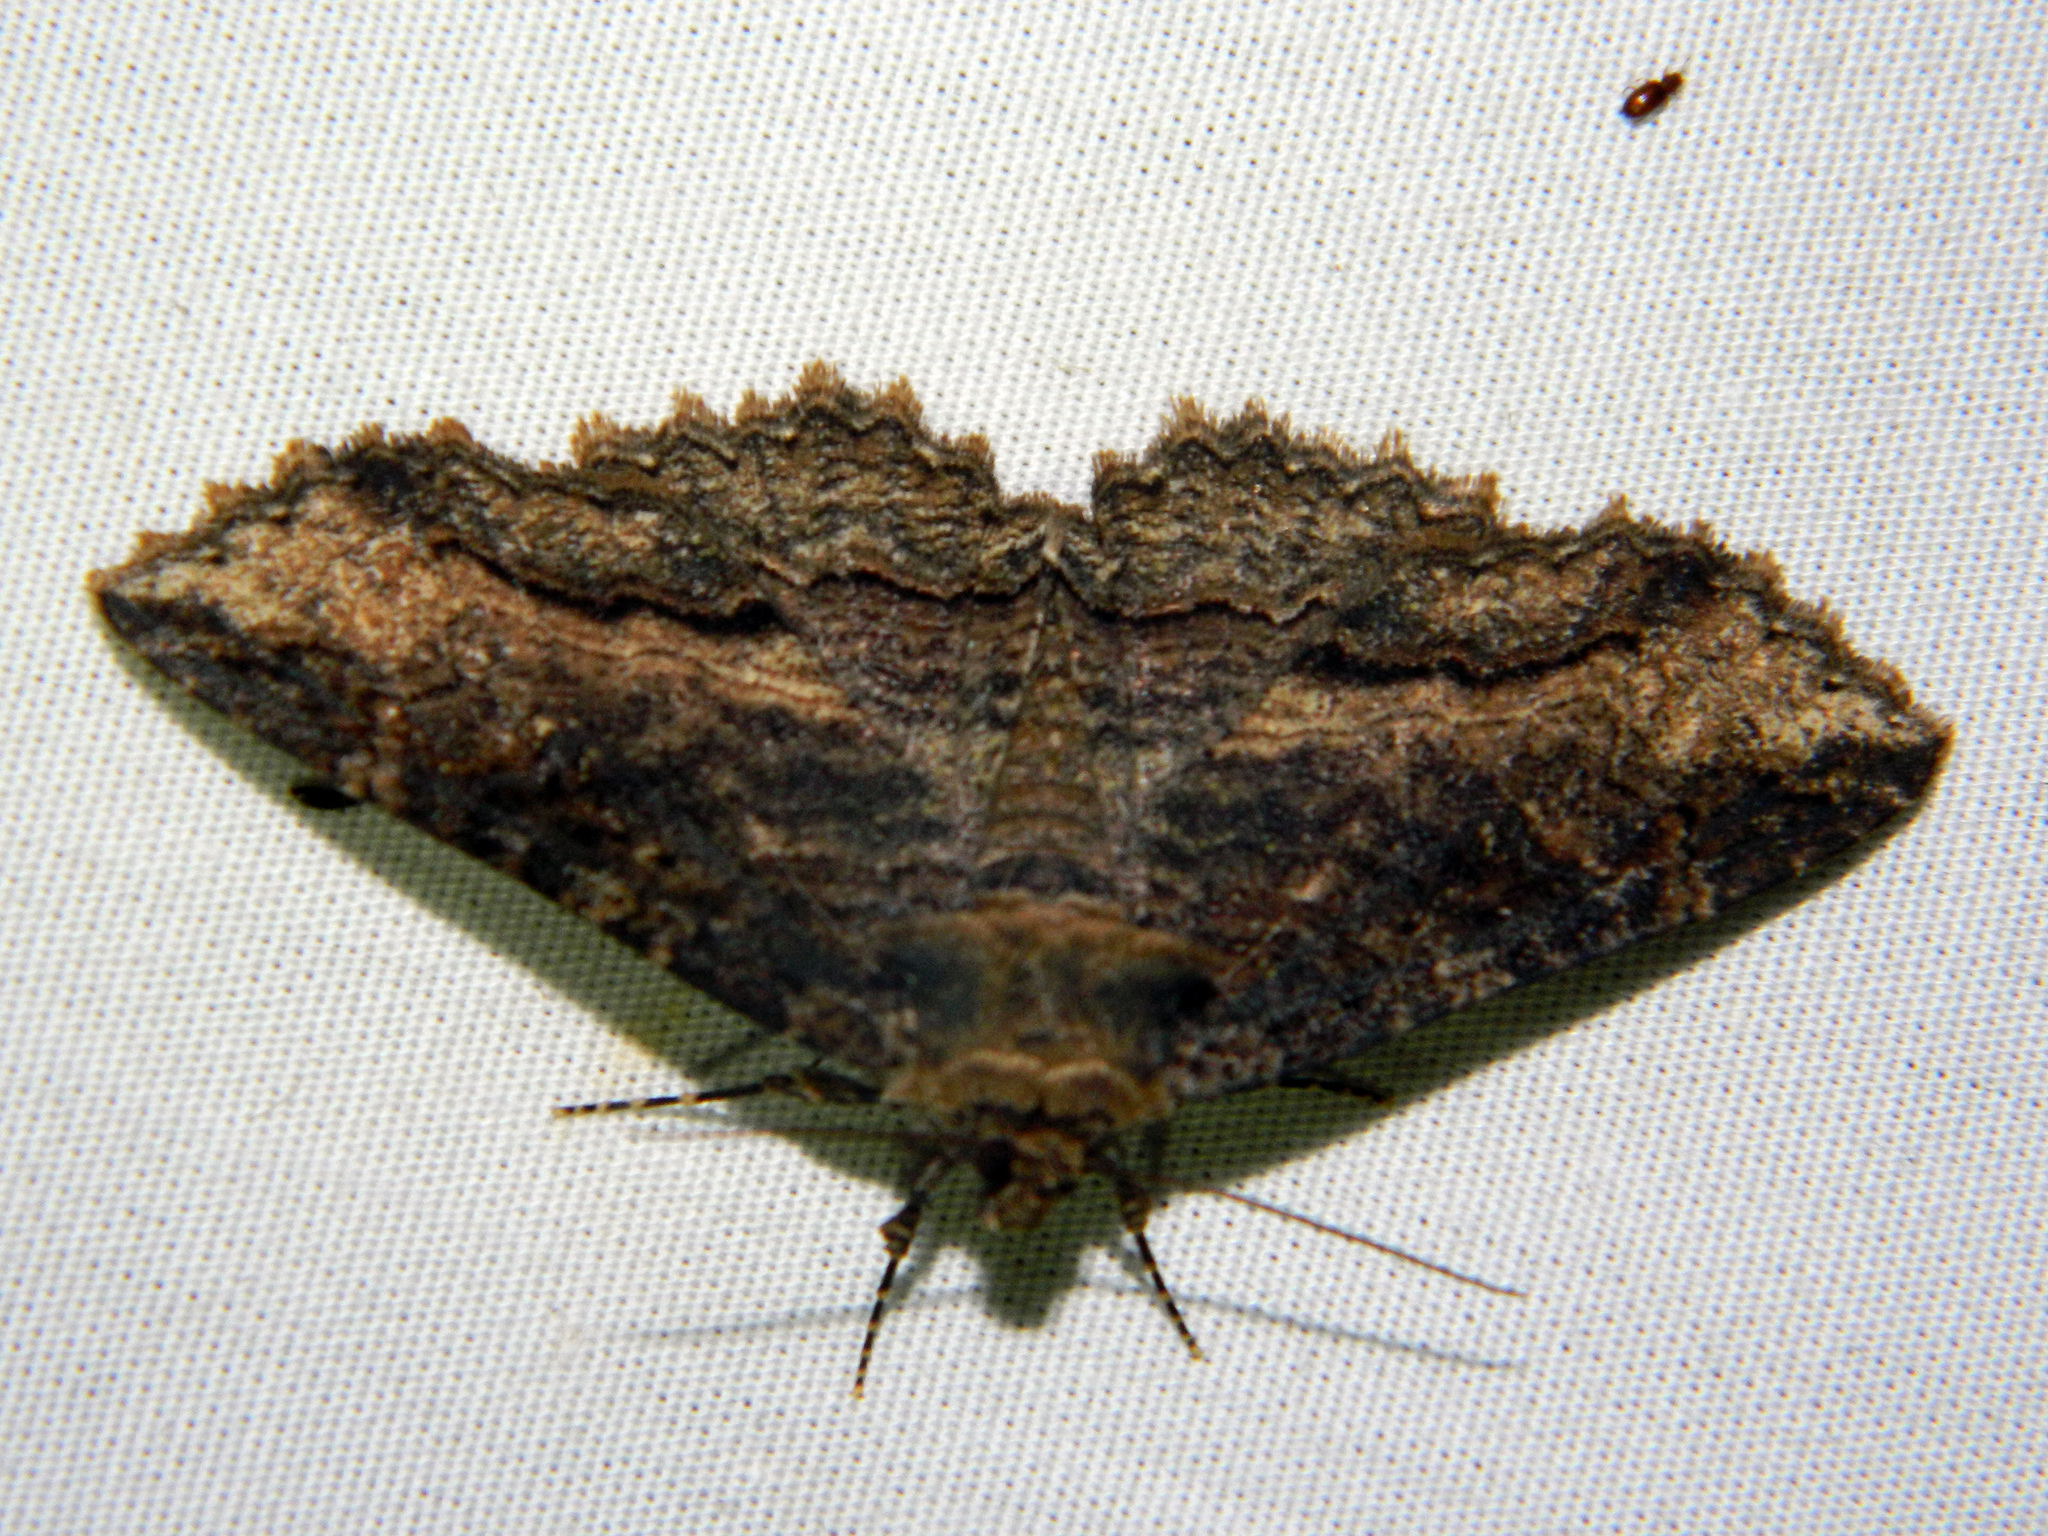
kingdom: Animalia
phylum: Arthropoda
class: Insecta
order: Lepidoptera
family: Erebidae
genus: Zale
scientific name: Zale minerea
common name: Colorful zale moth
